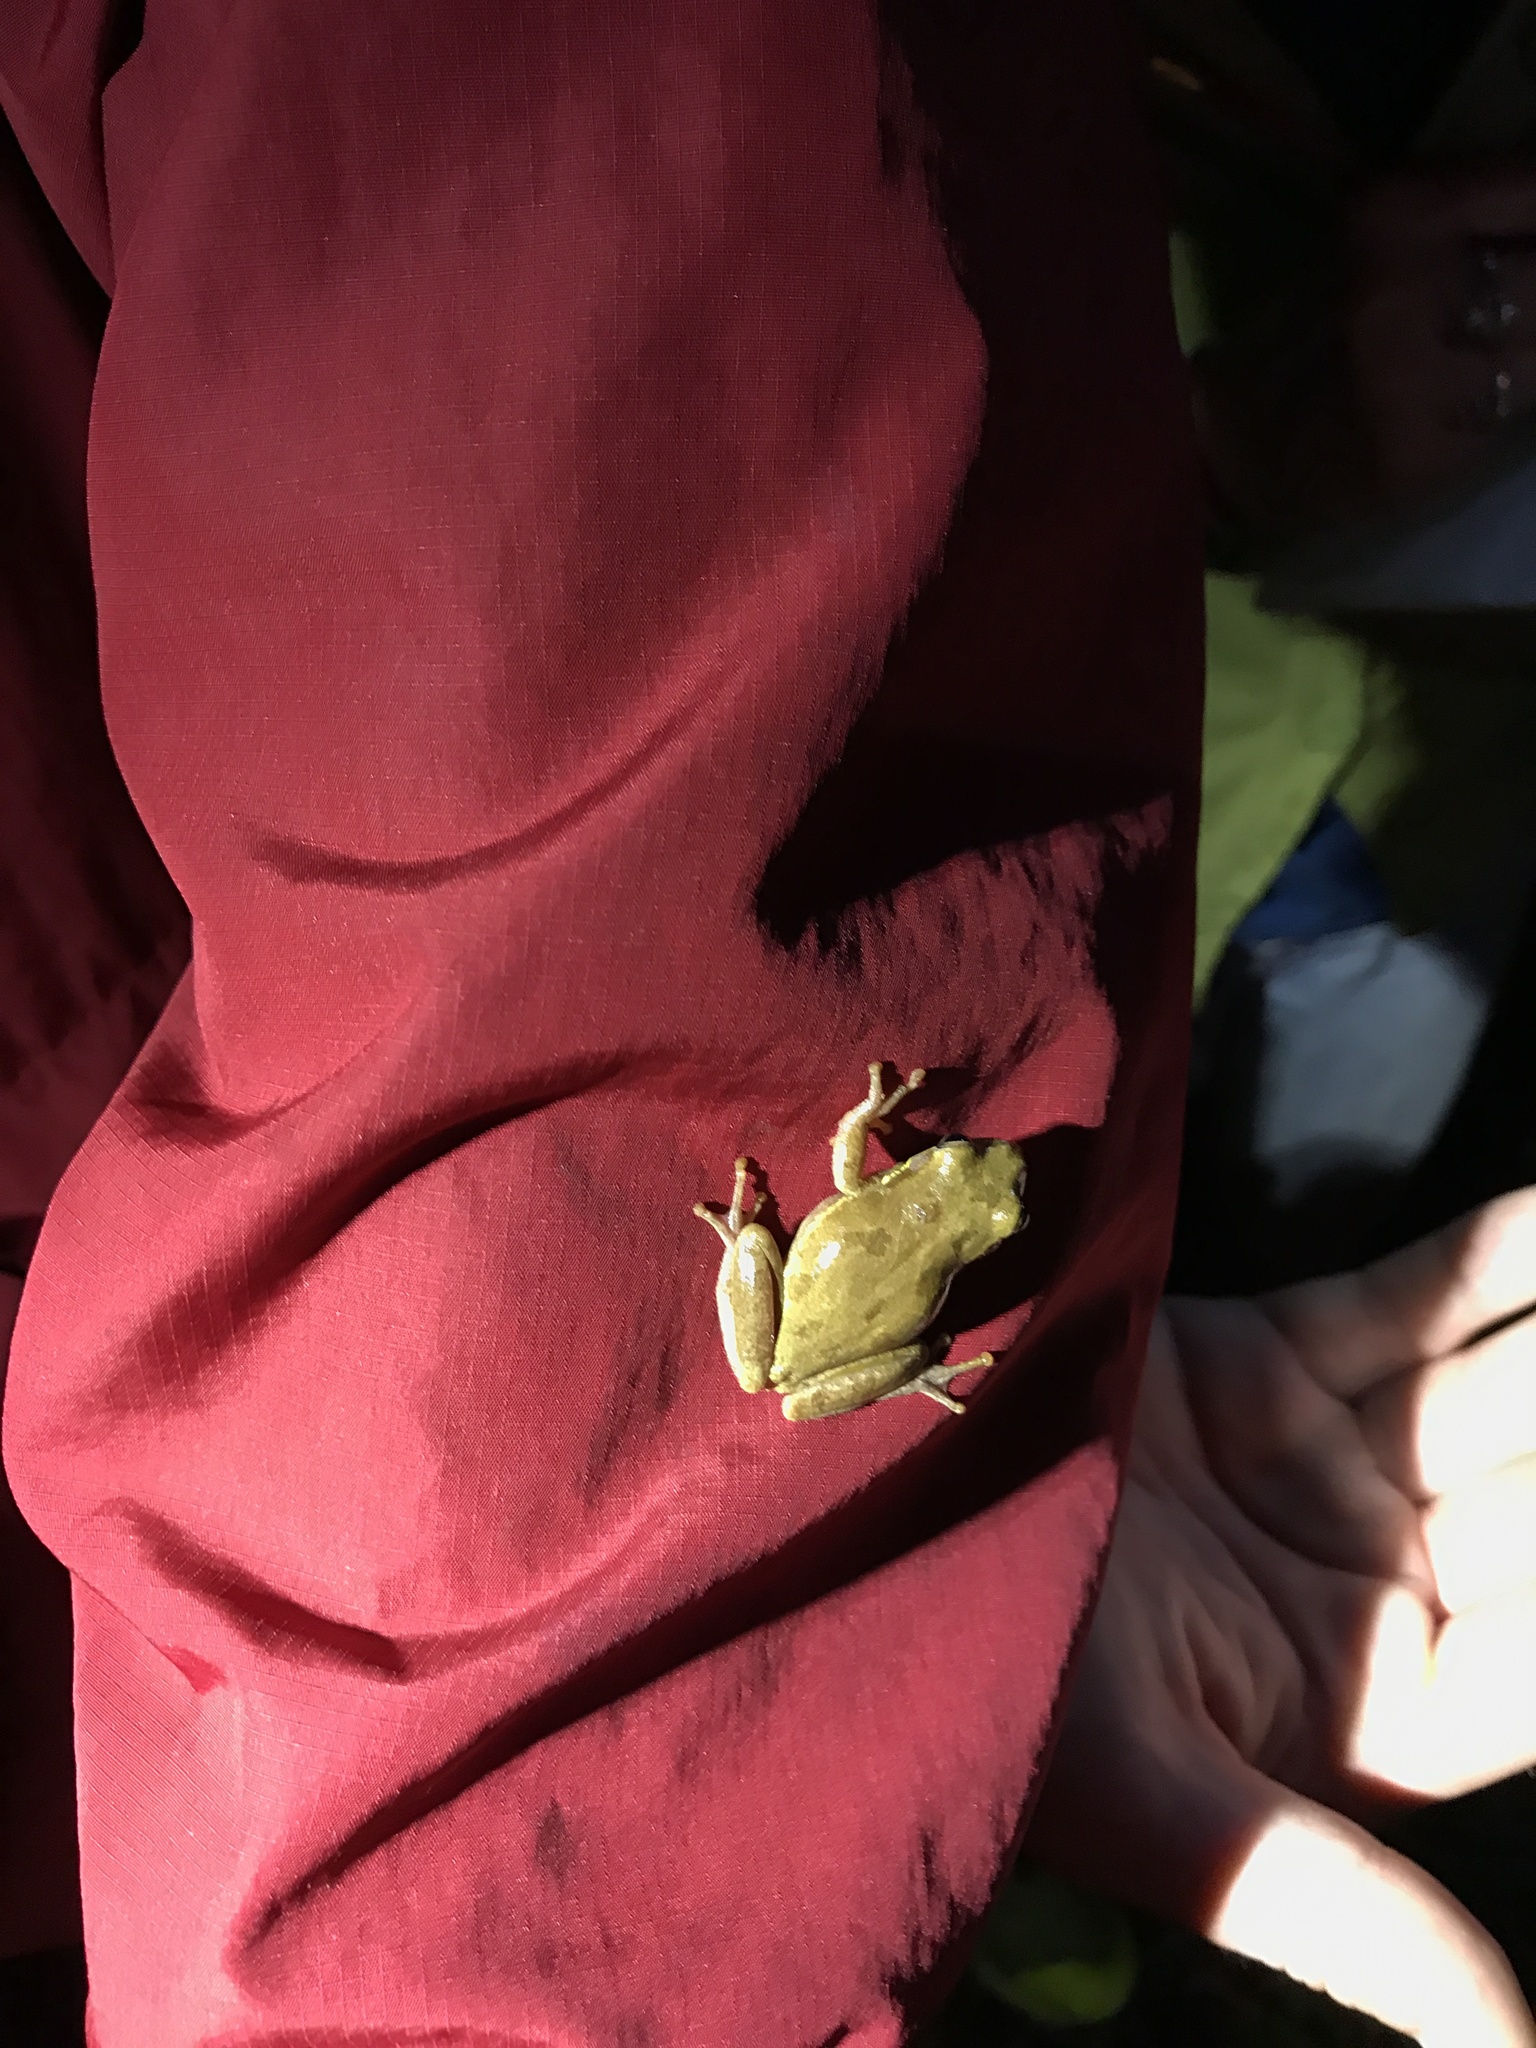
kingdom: Animalia
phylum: Chordata
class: Amphibia
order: Anura
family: Hylidae
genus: Dryophytes
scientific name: Dryophytes squirellus
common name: Squirrel treefrog
